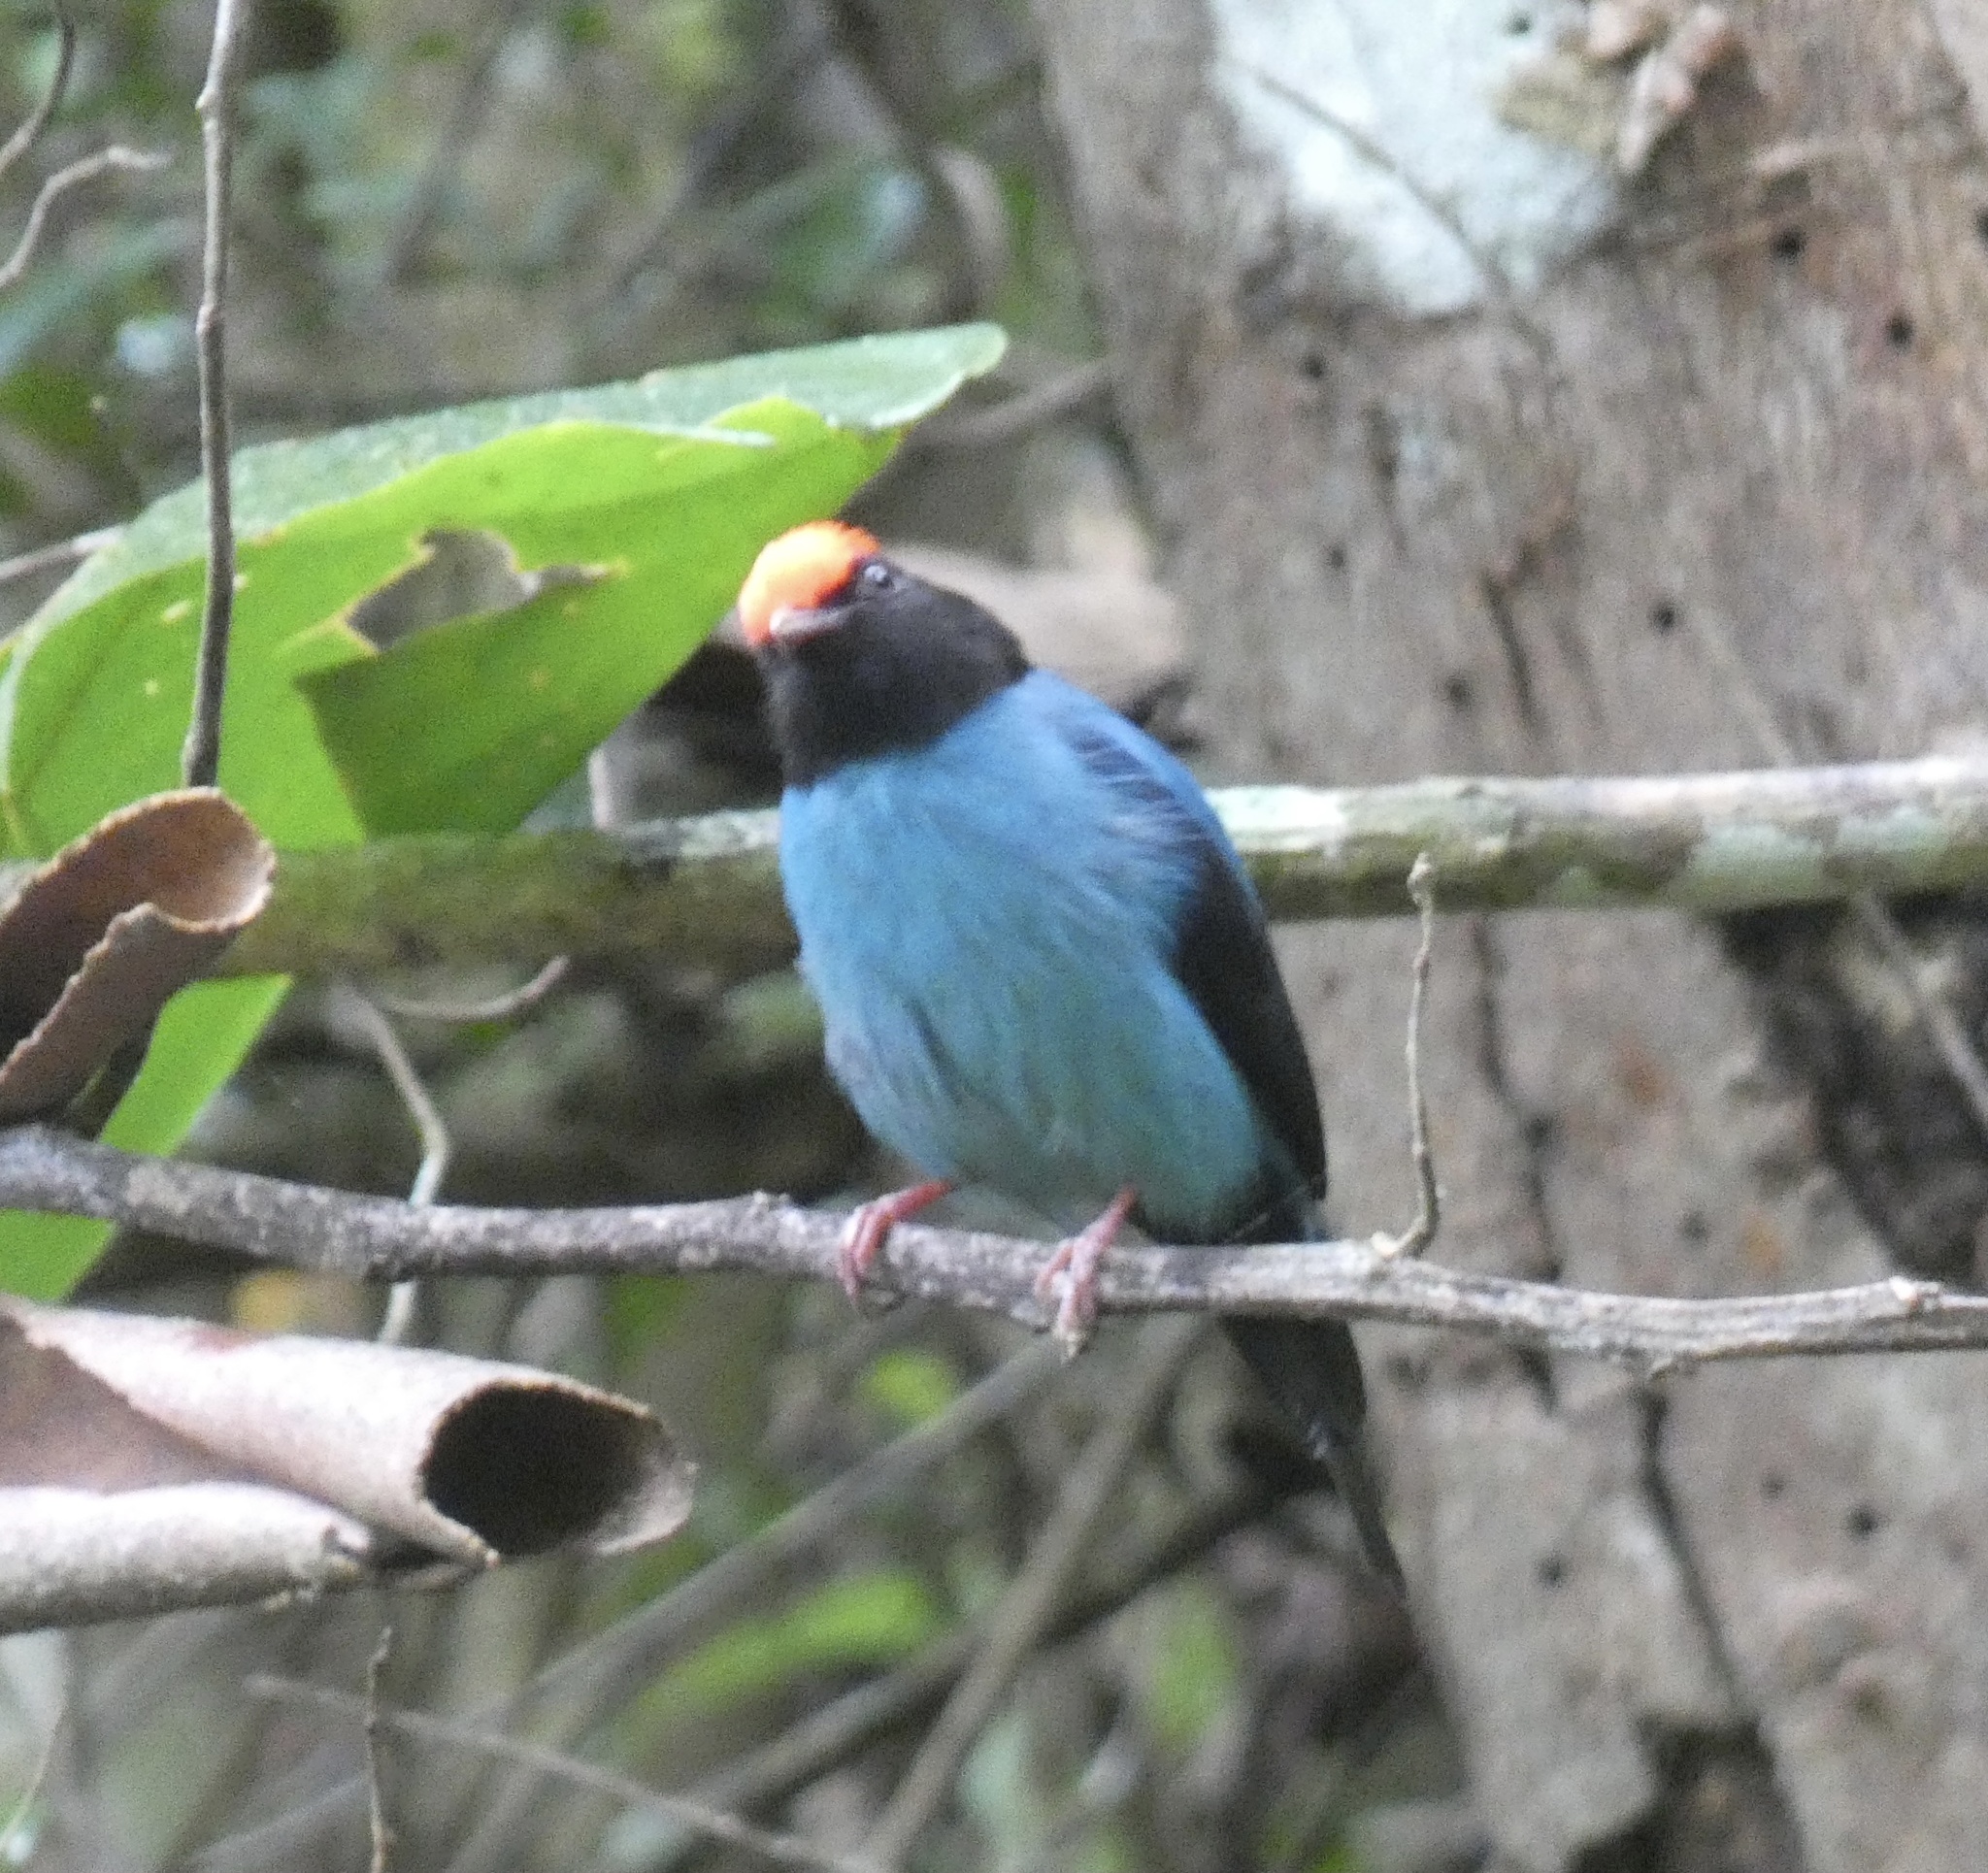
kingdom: Animalia
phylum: Chordata
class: Aves
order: Passeriformes
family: Pipridae
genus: Chiroxiphia
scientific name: Chiroxiphia caudata
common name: Blue manakin
